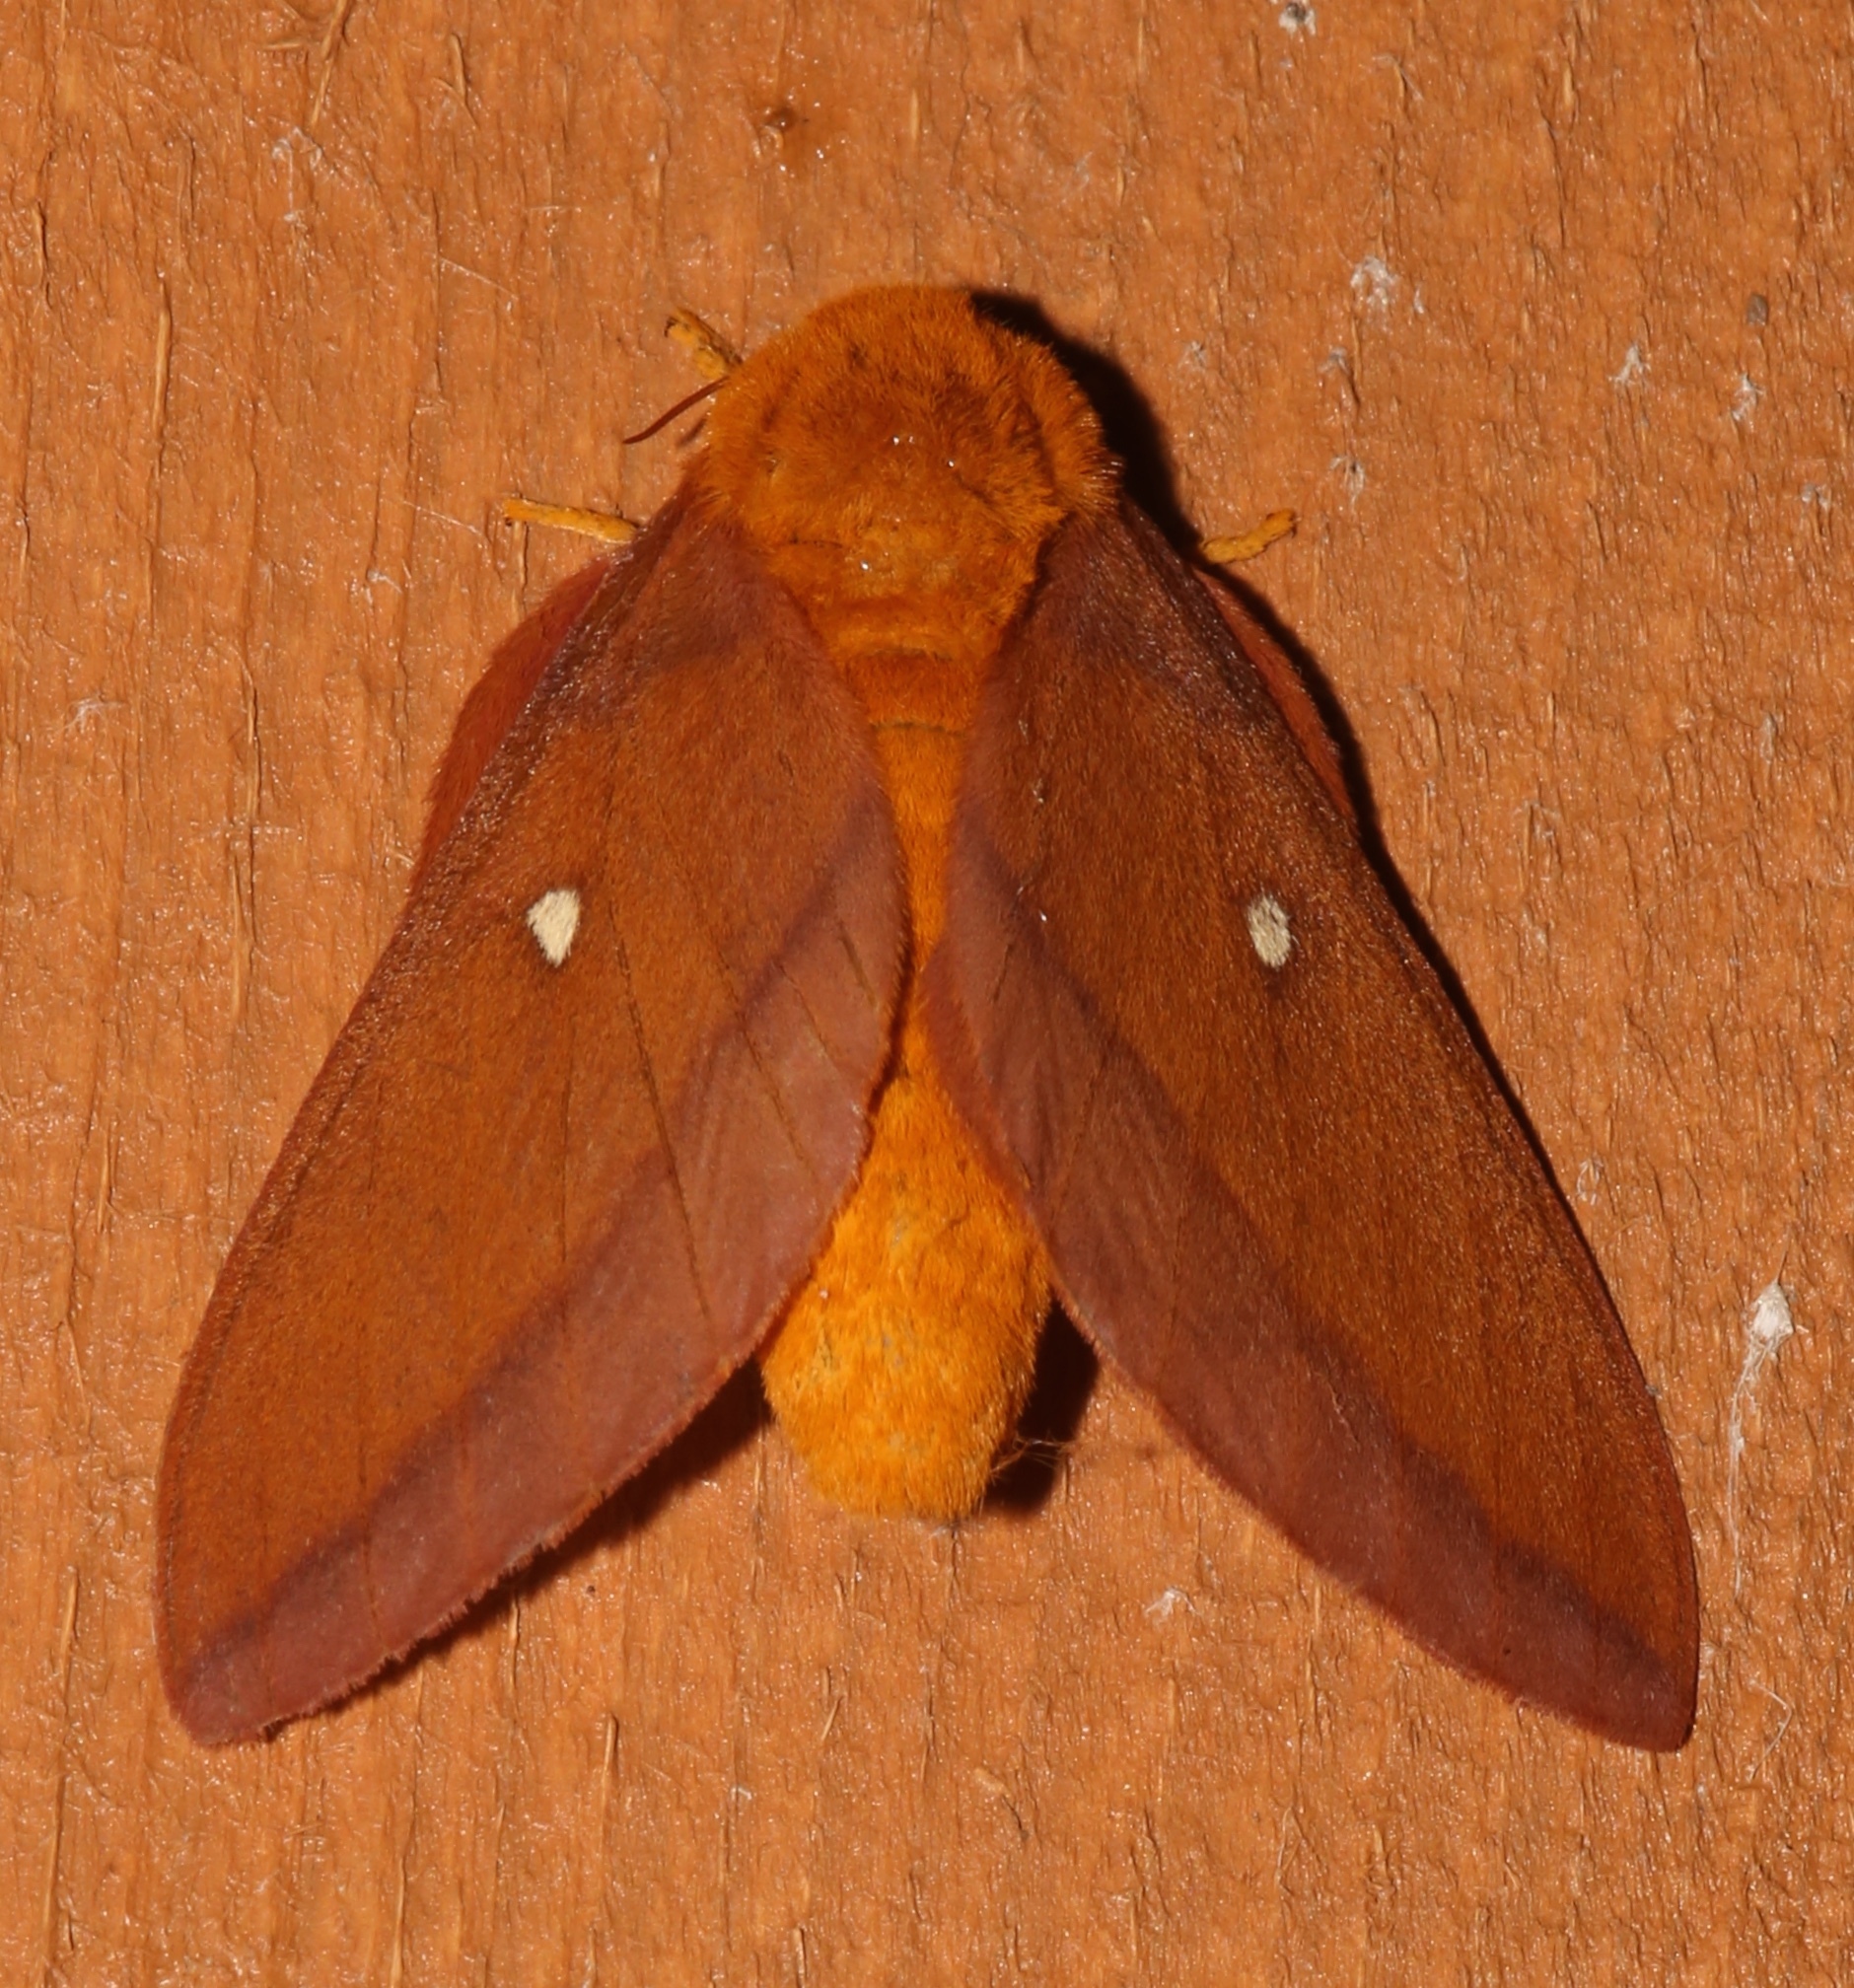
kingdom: Animalia
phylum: Arthropoda
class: Insecta
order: Lepidoptera
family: Saturniidae
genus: Anisota
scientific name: Anisota virginiensis
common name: Pink striped oakworm moth
